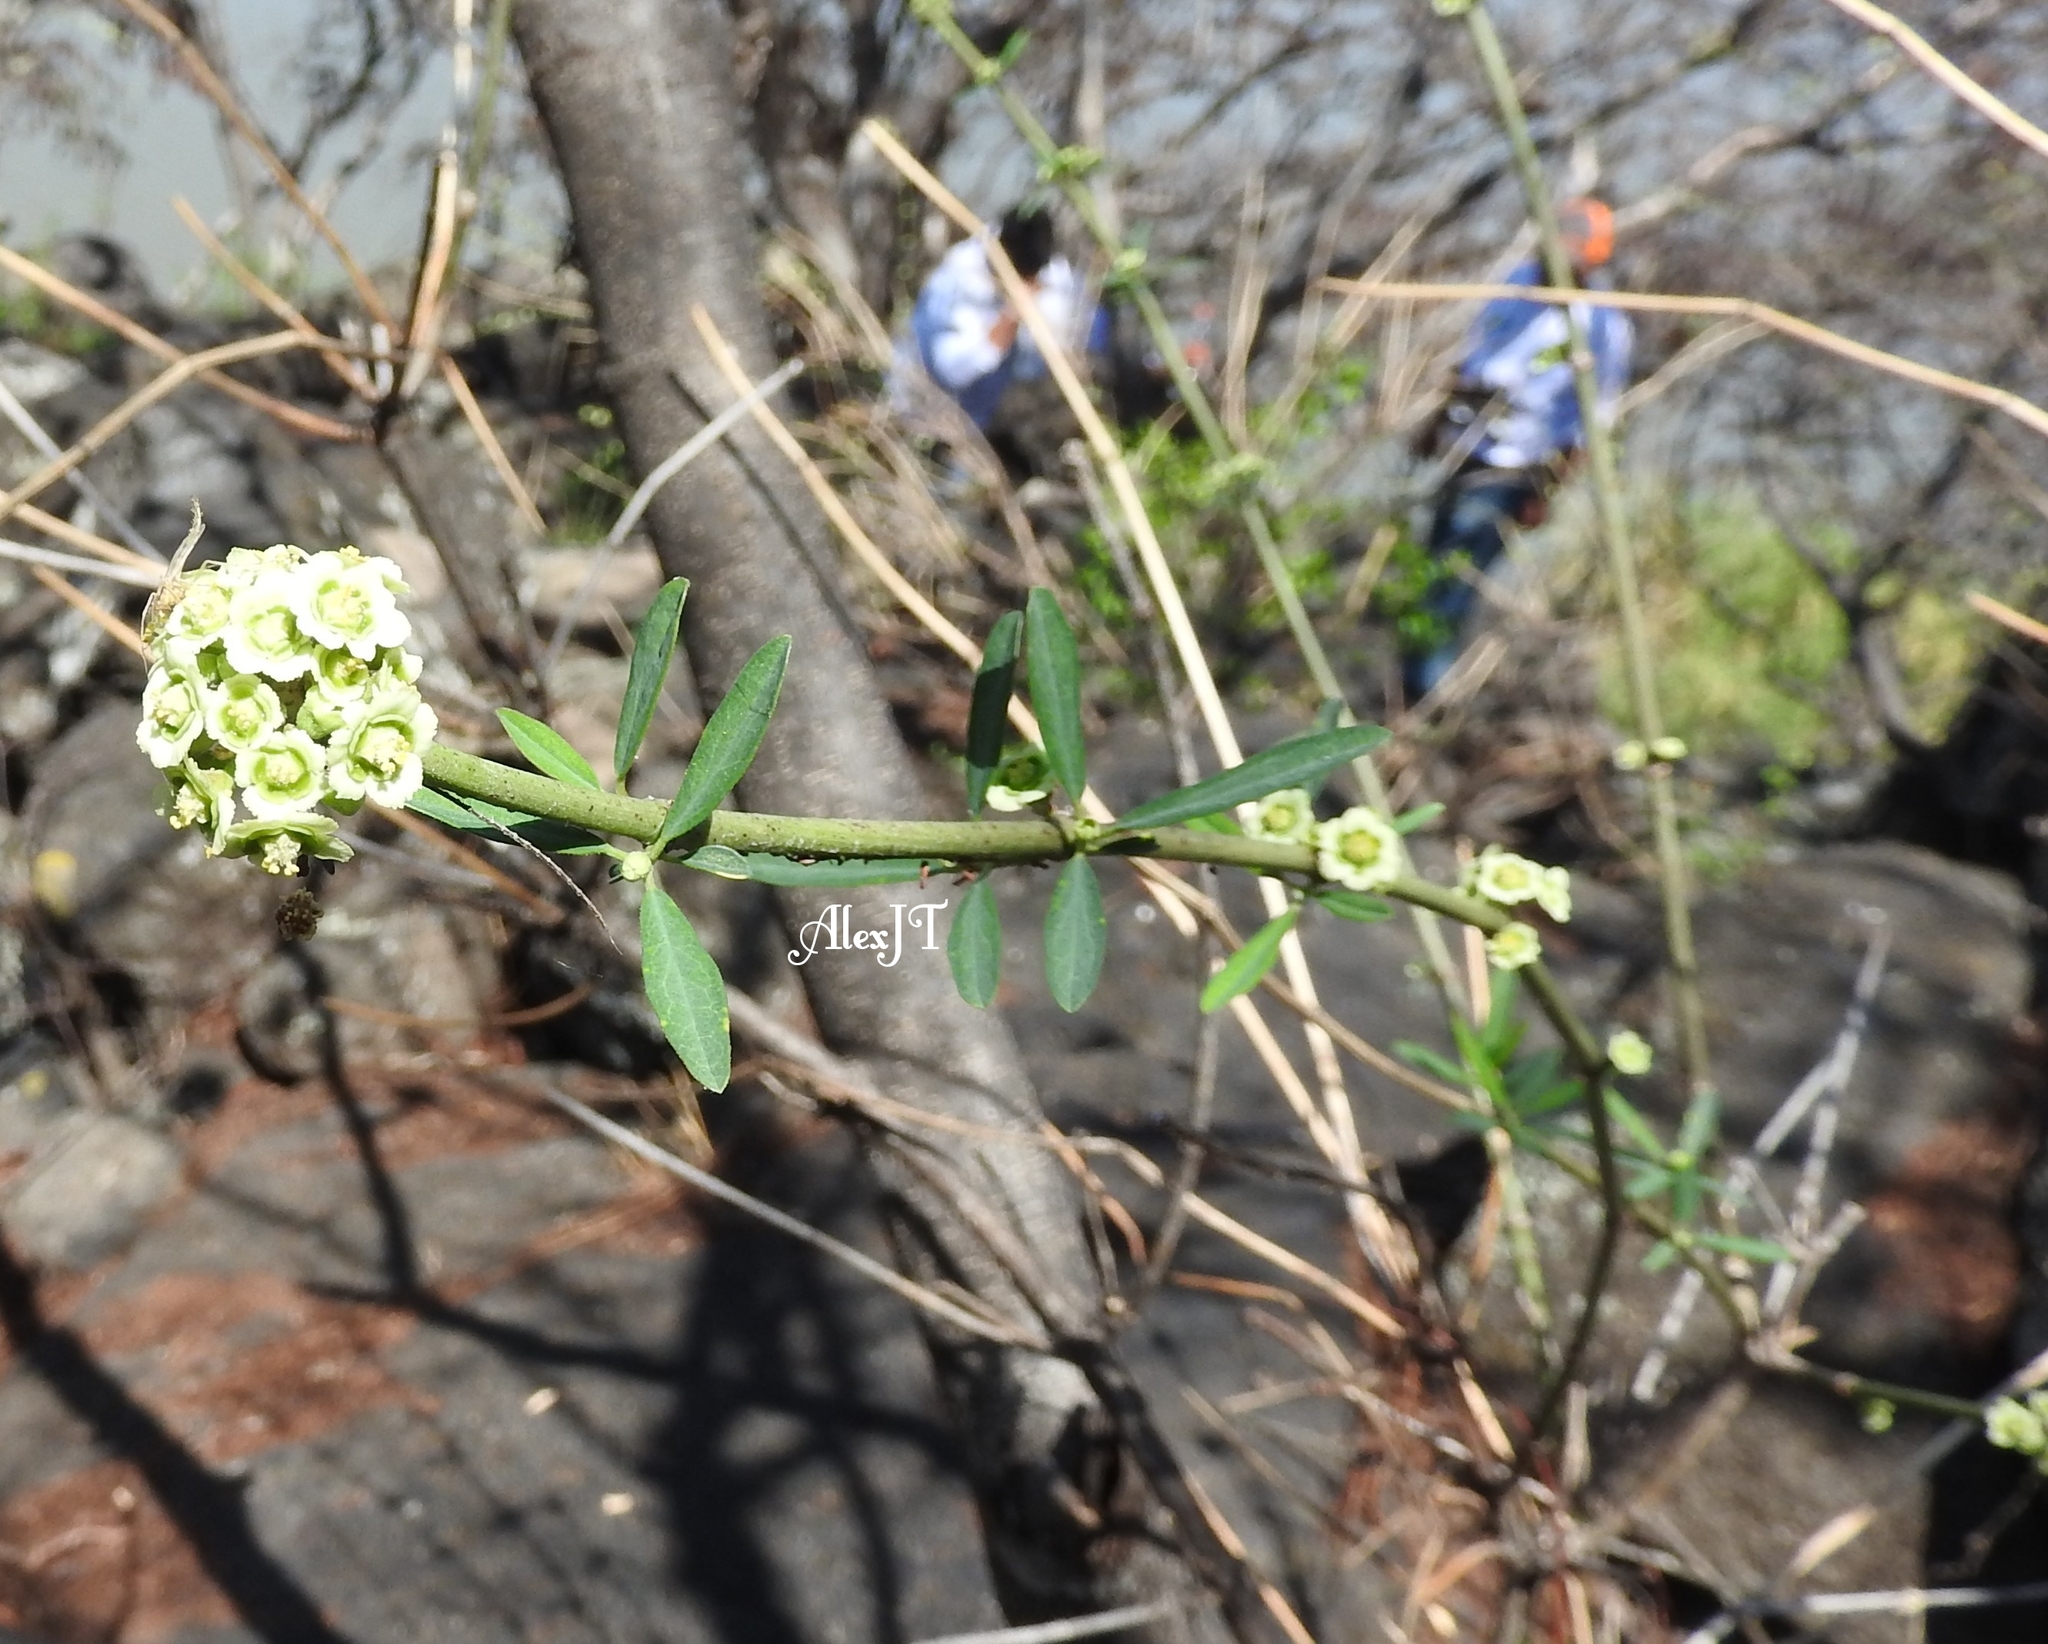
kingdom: Plantae
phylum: Tracheophyta
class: Magnoliopsida
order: Malpighiales
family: Euphorbiaceae
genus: Euphorbia
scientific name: Euphorbia cymosa
